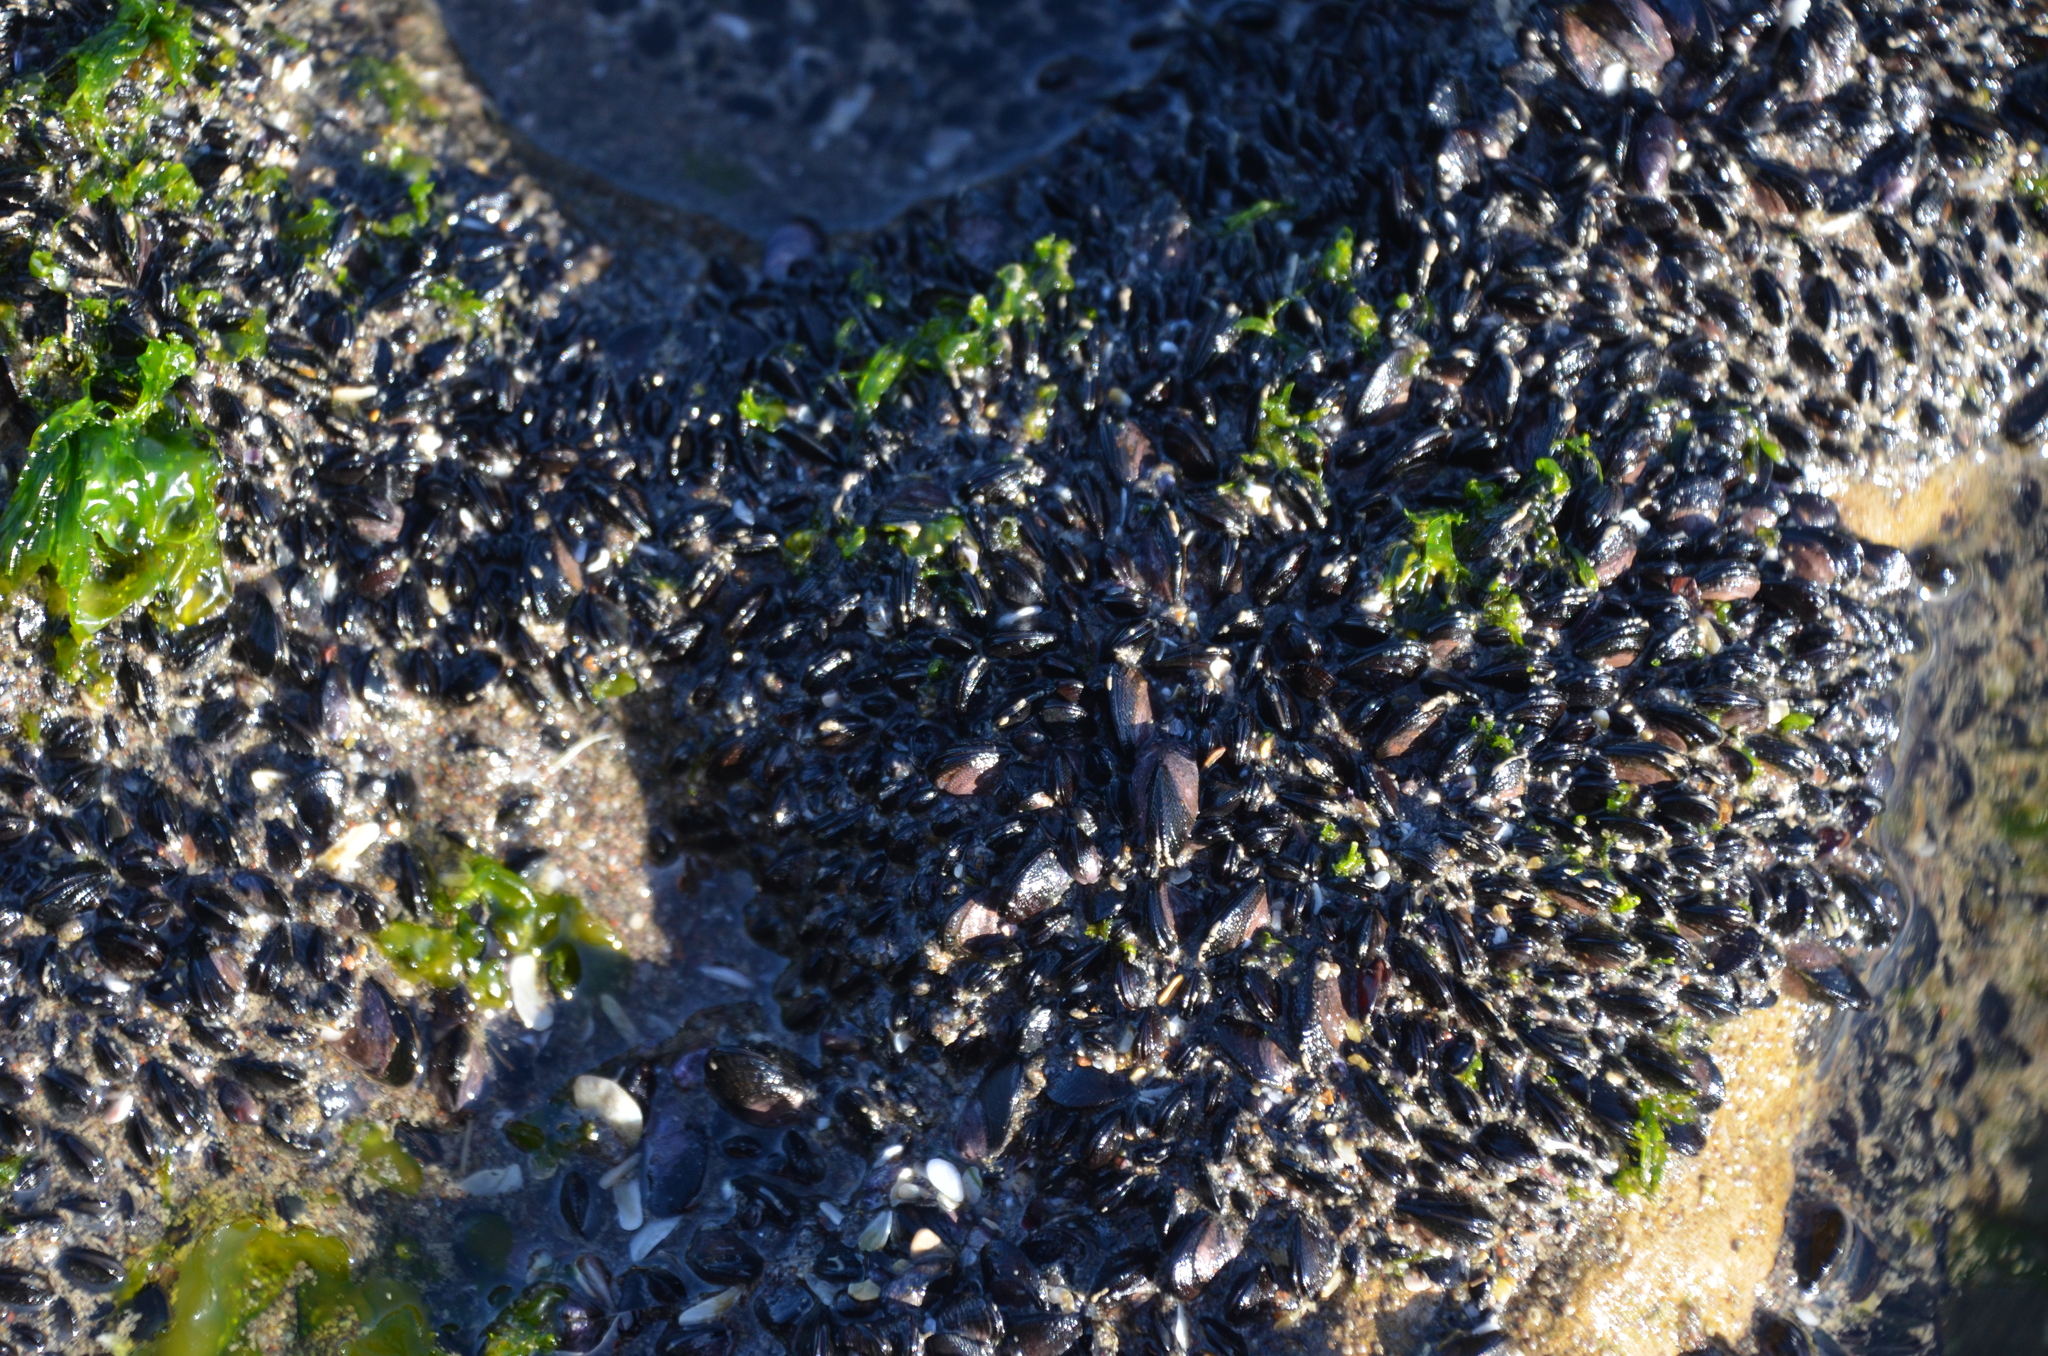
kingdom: Animalia
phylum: Mollusca
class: Bivalvia
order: Mytilida
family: Mytilidae
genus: Brachidontes
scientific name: Brachidontes rodriguezii
